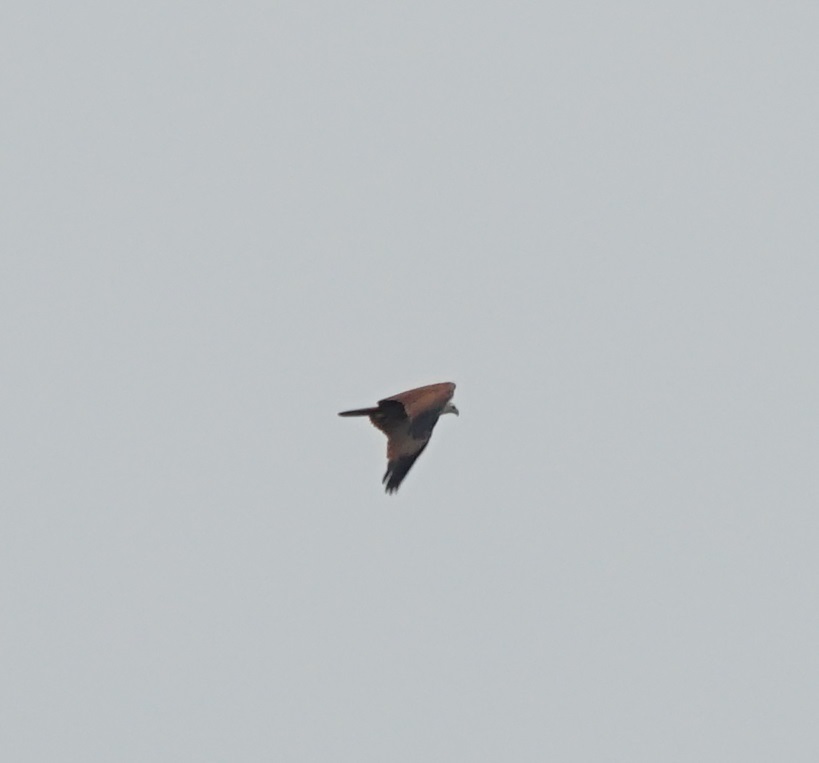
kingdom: Animalia
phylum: Chordata
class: Aves
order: Accipitriformes
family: Accipitridae
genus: Haliastur
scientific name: Haliastur indus
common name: Brahminy kite
